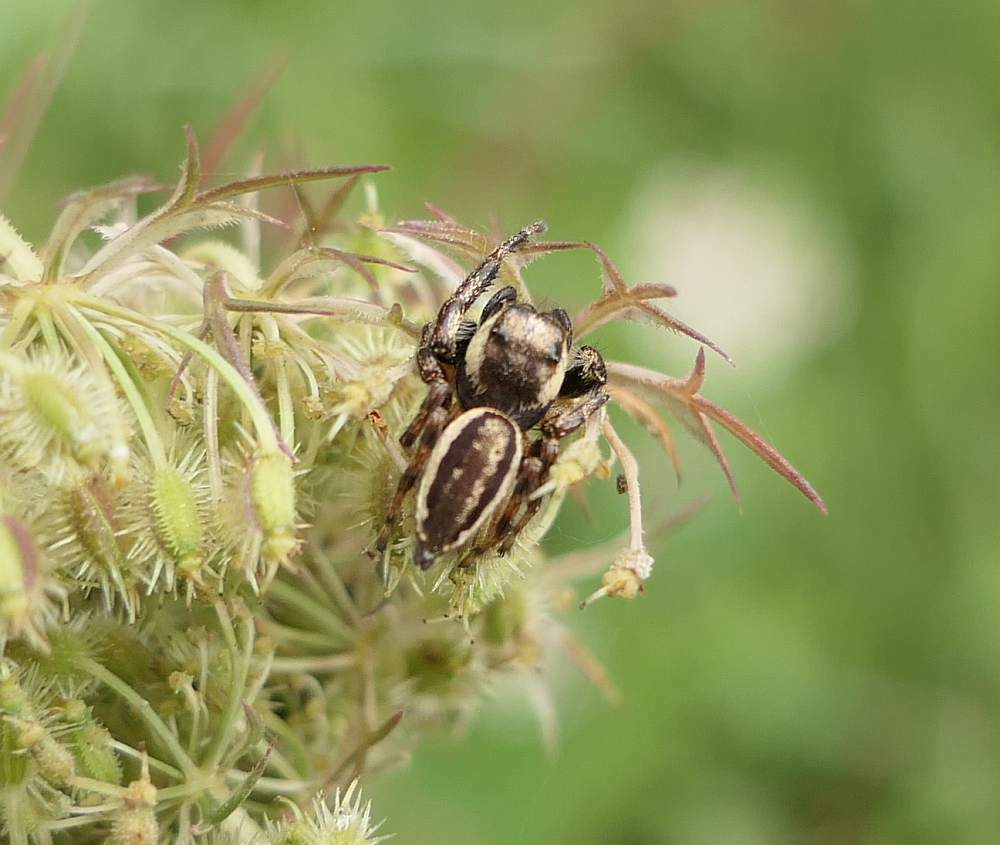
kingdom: Animalia
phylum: Arthropoda
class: Arachnida
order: Araneae
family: Salticidae
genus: Eris
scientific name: Eris militaris
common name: Bronze jumper
